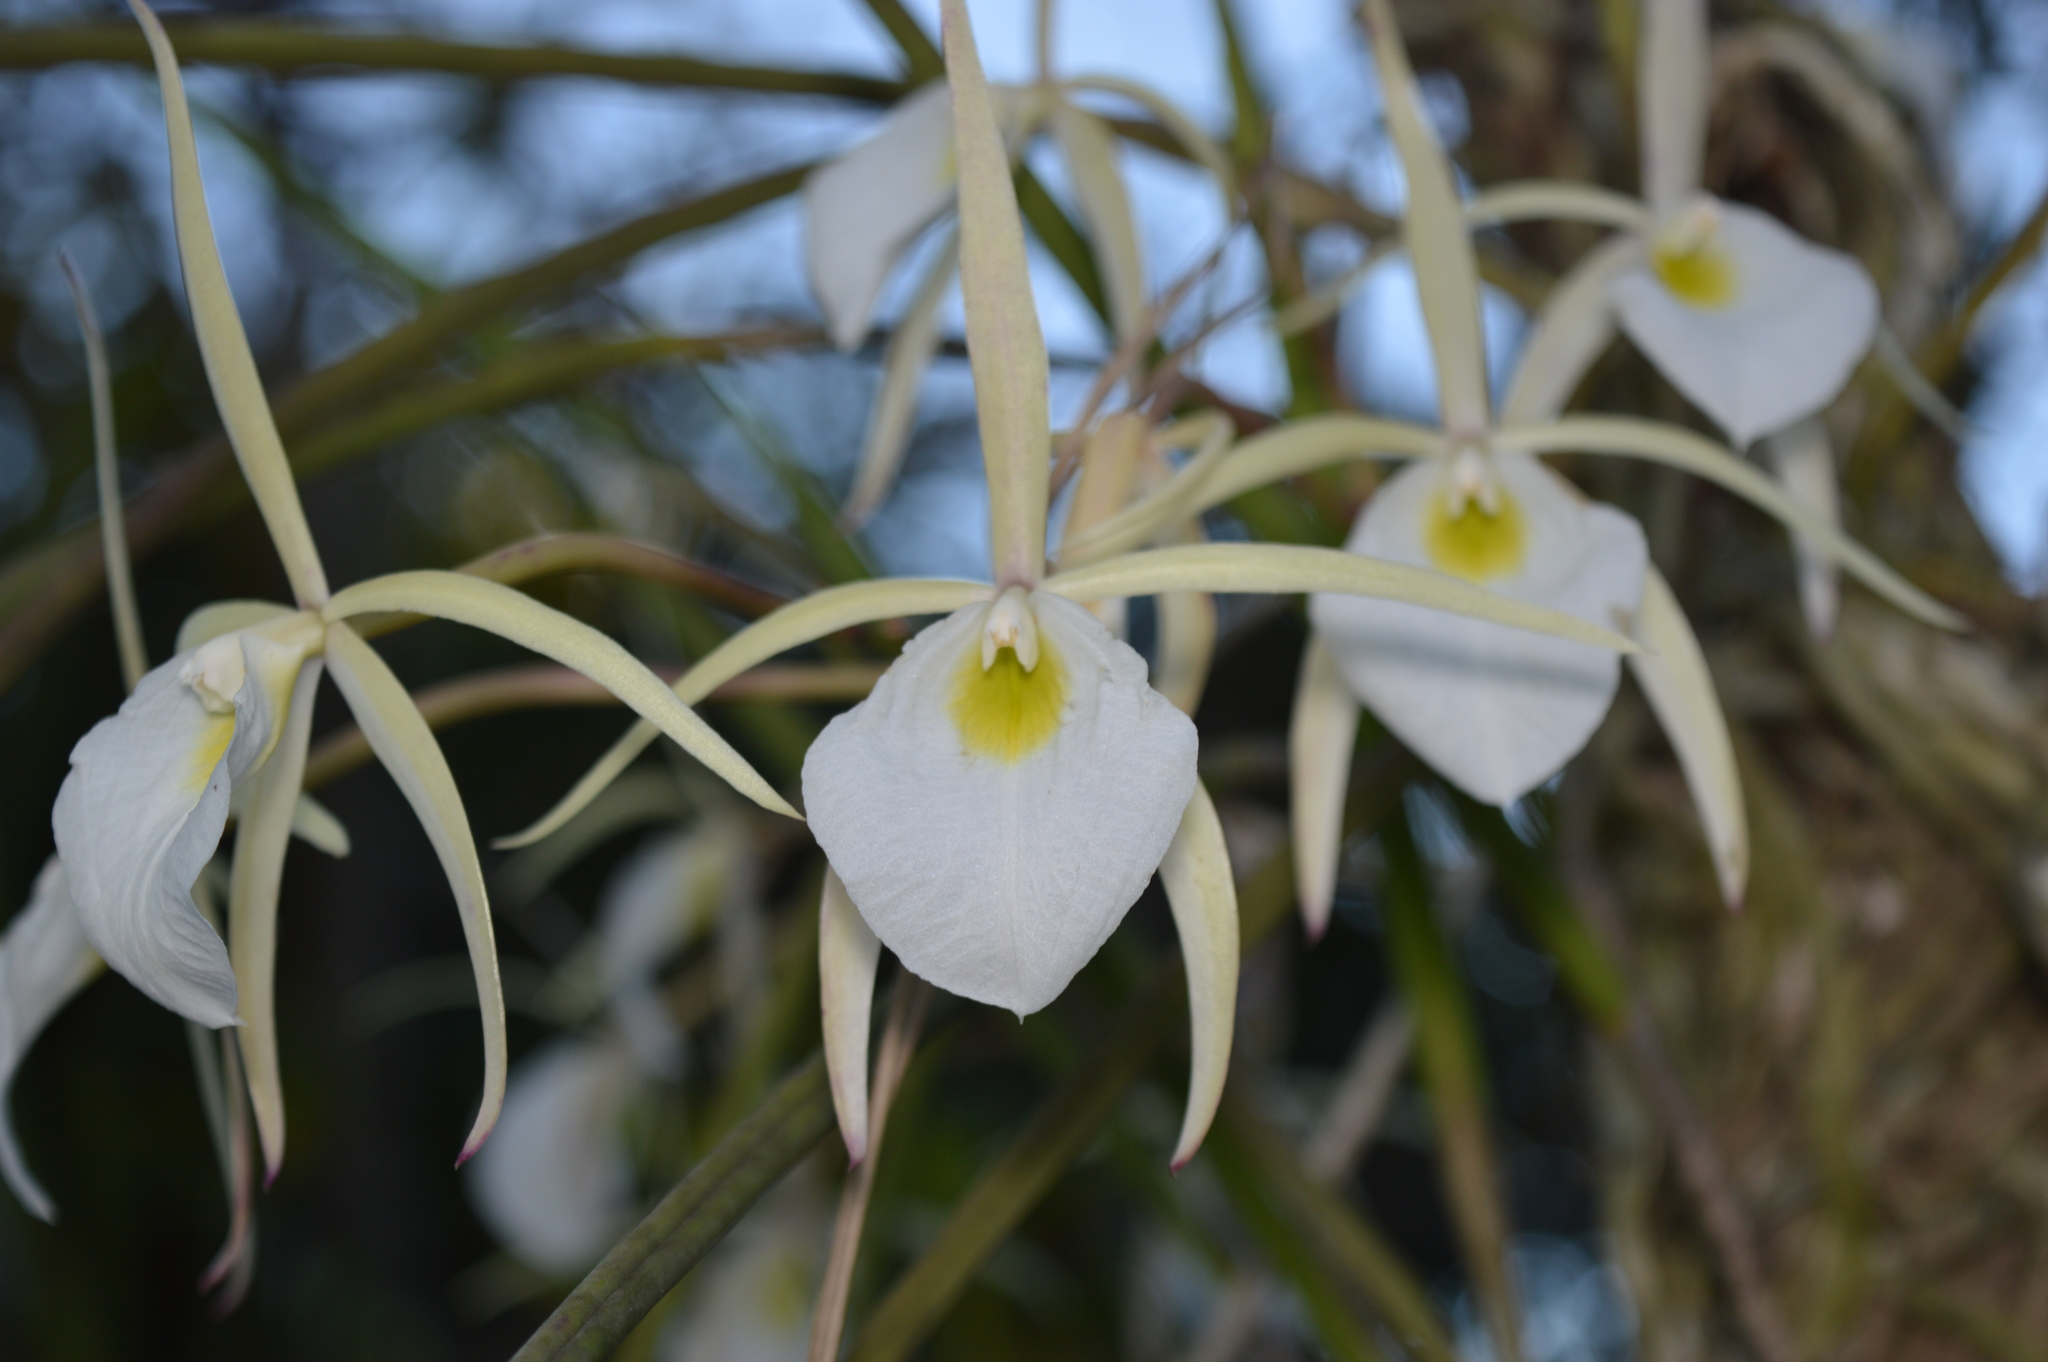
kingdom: Plantae
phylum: Tracheophyta
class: Liliopsida
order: Asparagales
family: Orchidaceae
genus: Brassavola
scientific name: Brassavola tuberculata
